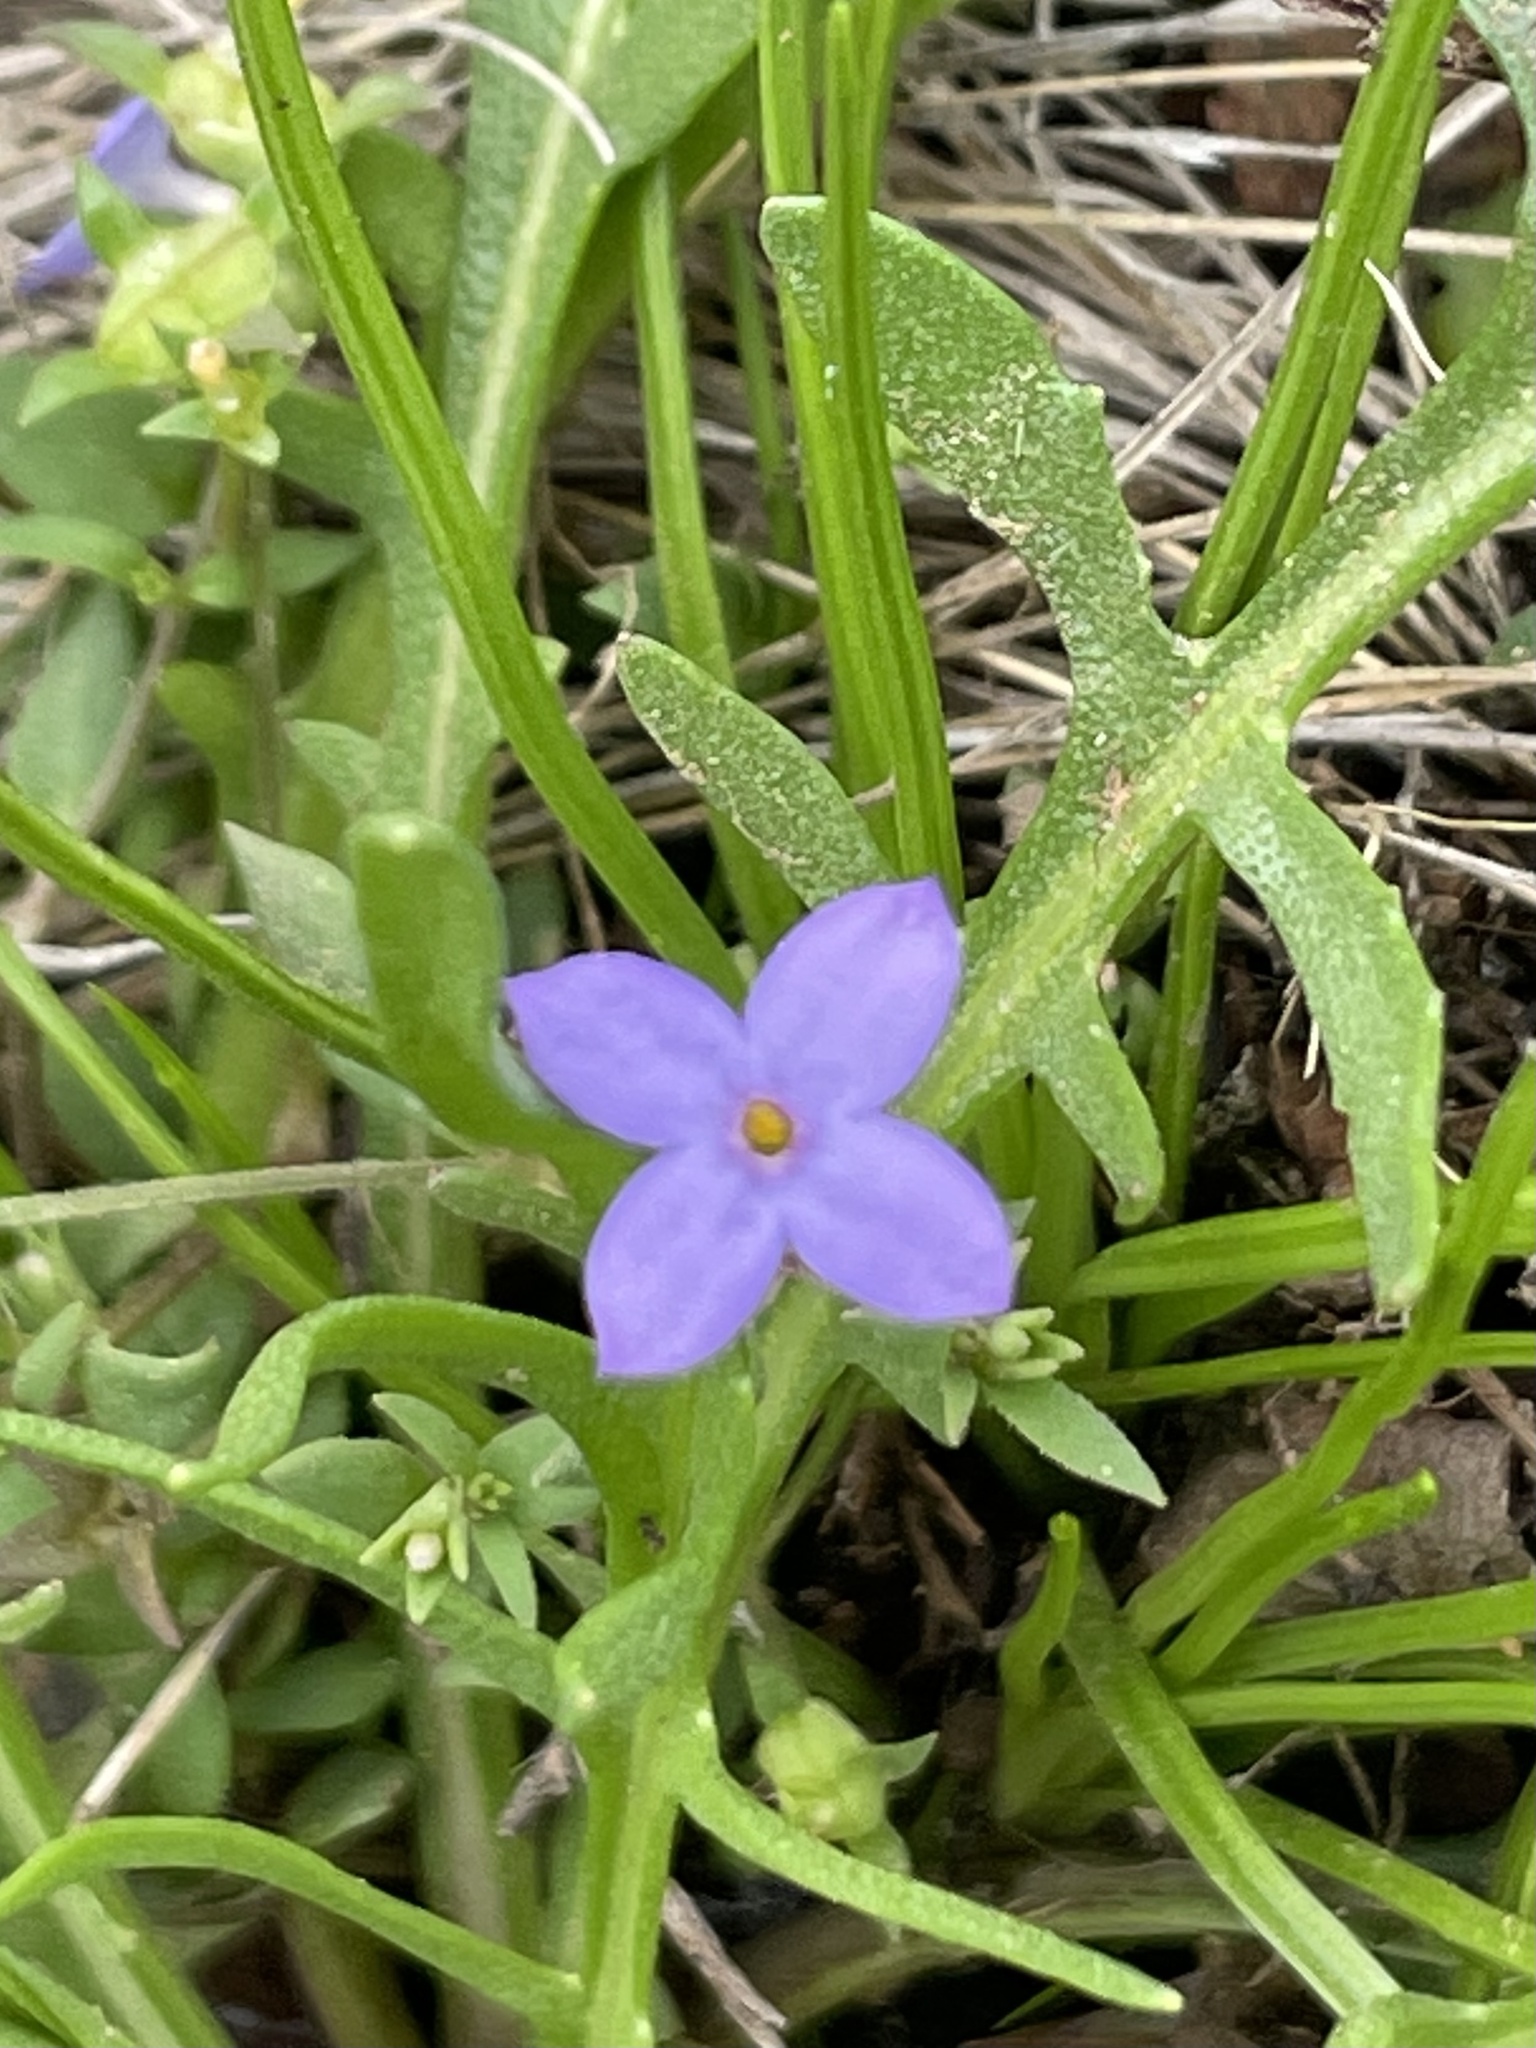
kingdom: Plantae
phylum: Tracheophyta
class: Magnoliopsida
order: Gentianales
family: Rubiaceae
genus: Houstonia
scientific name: Houstonia pusilla
